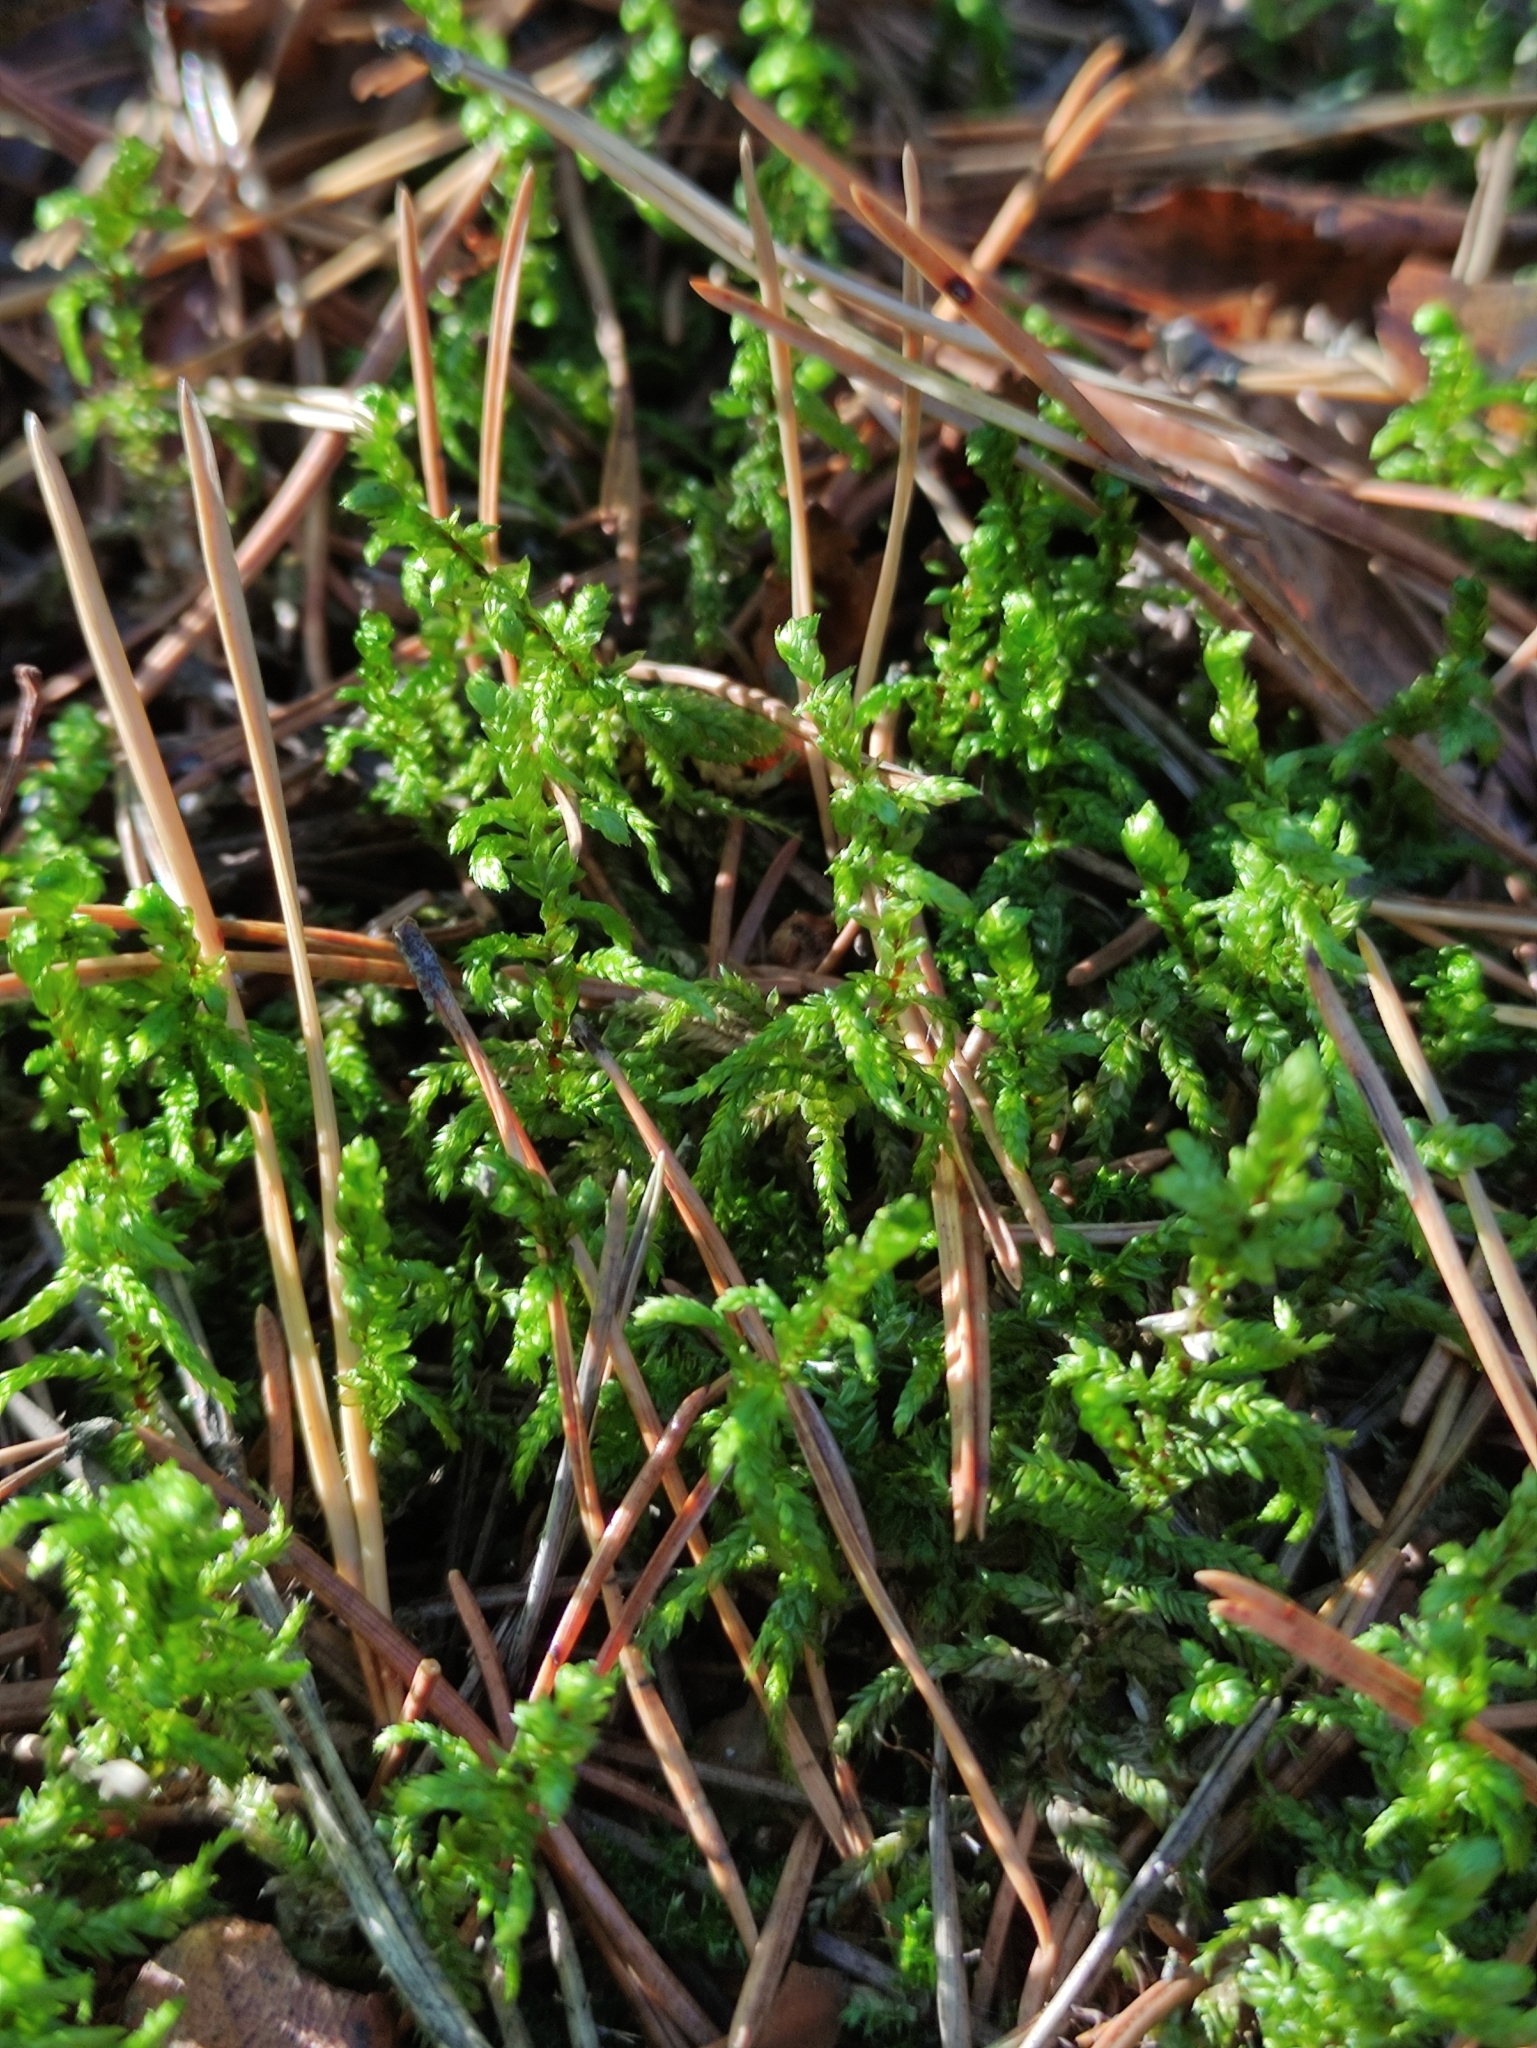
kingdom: Plantae
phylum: Bryophyta
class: Bryopsida
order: Hypnales
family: Hylocomiaceae
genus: Pleurozium
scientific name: Pleurozium schreberi
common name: Red-stemmed feather moss
